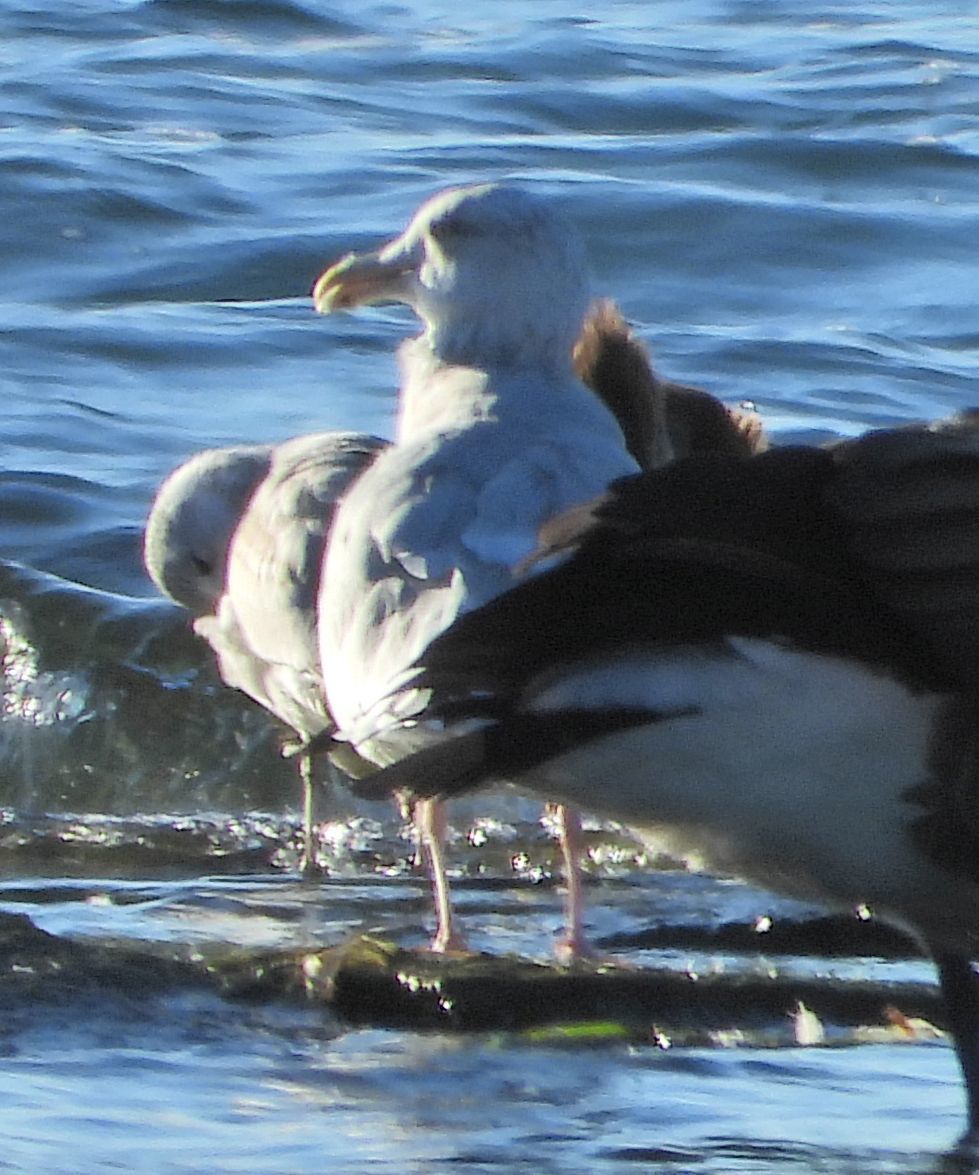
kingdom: Animalia
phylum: Chordata
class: Aves
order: Charadriiformes
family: Laridae
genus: Larus
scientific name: Larus argentatus
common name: Herring gull
